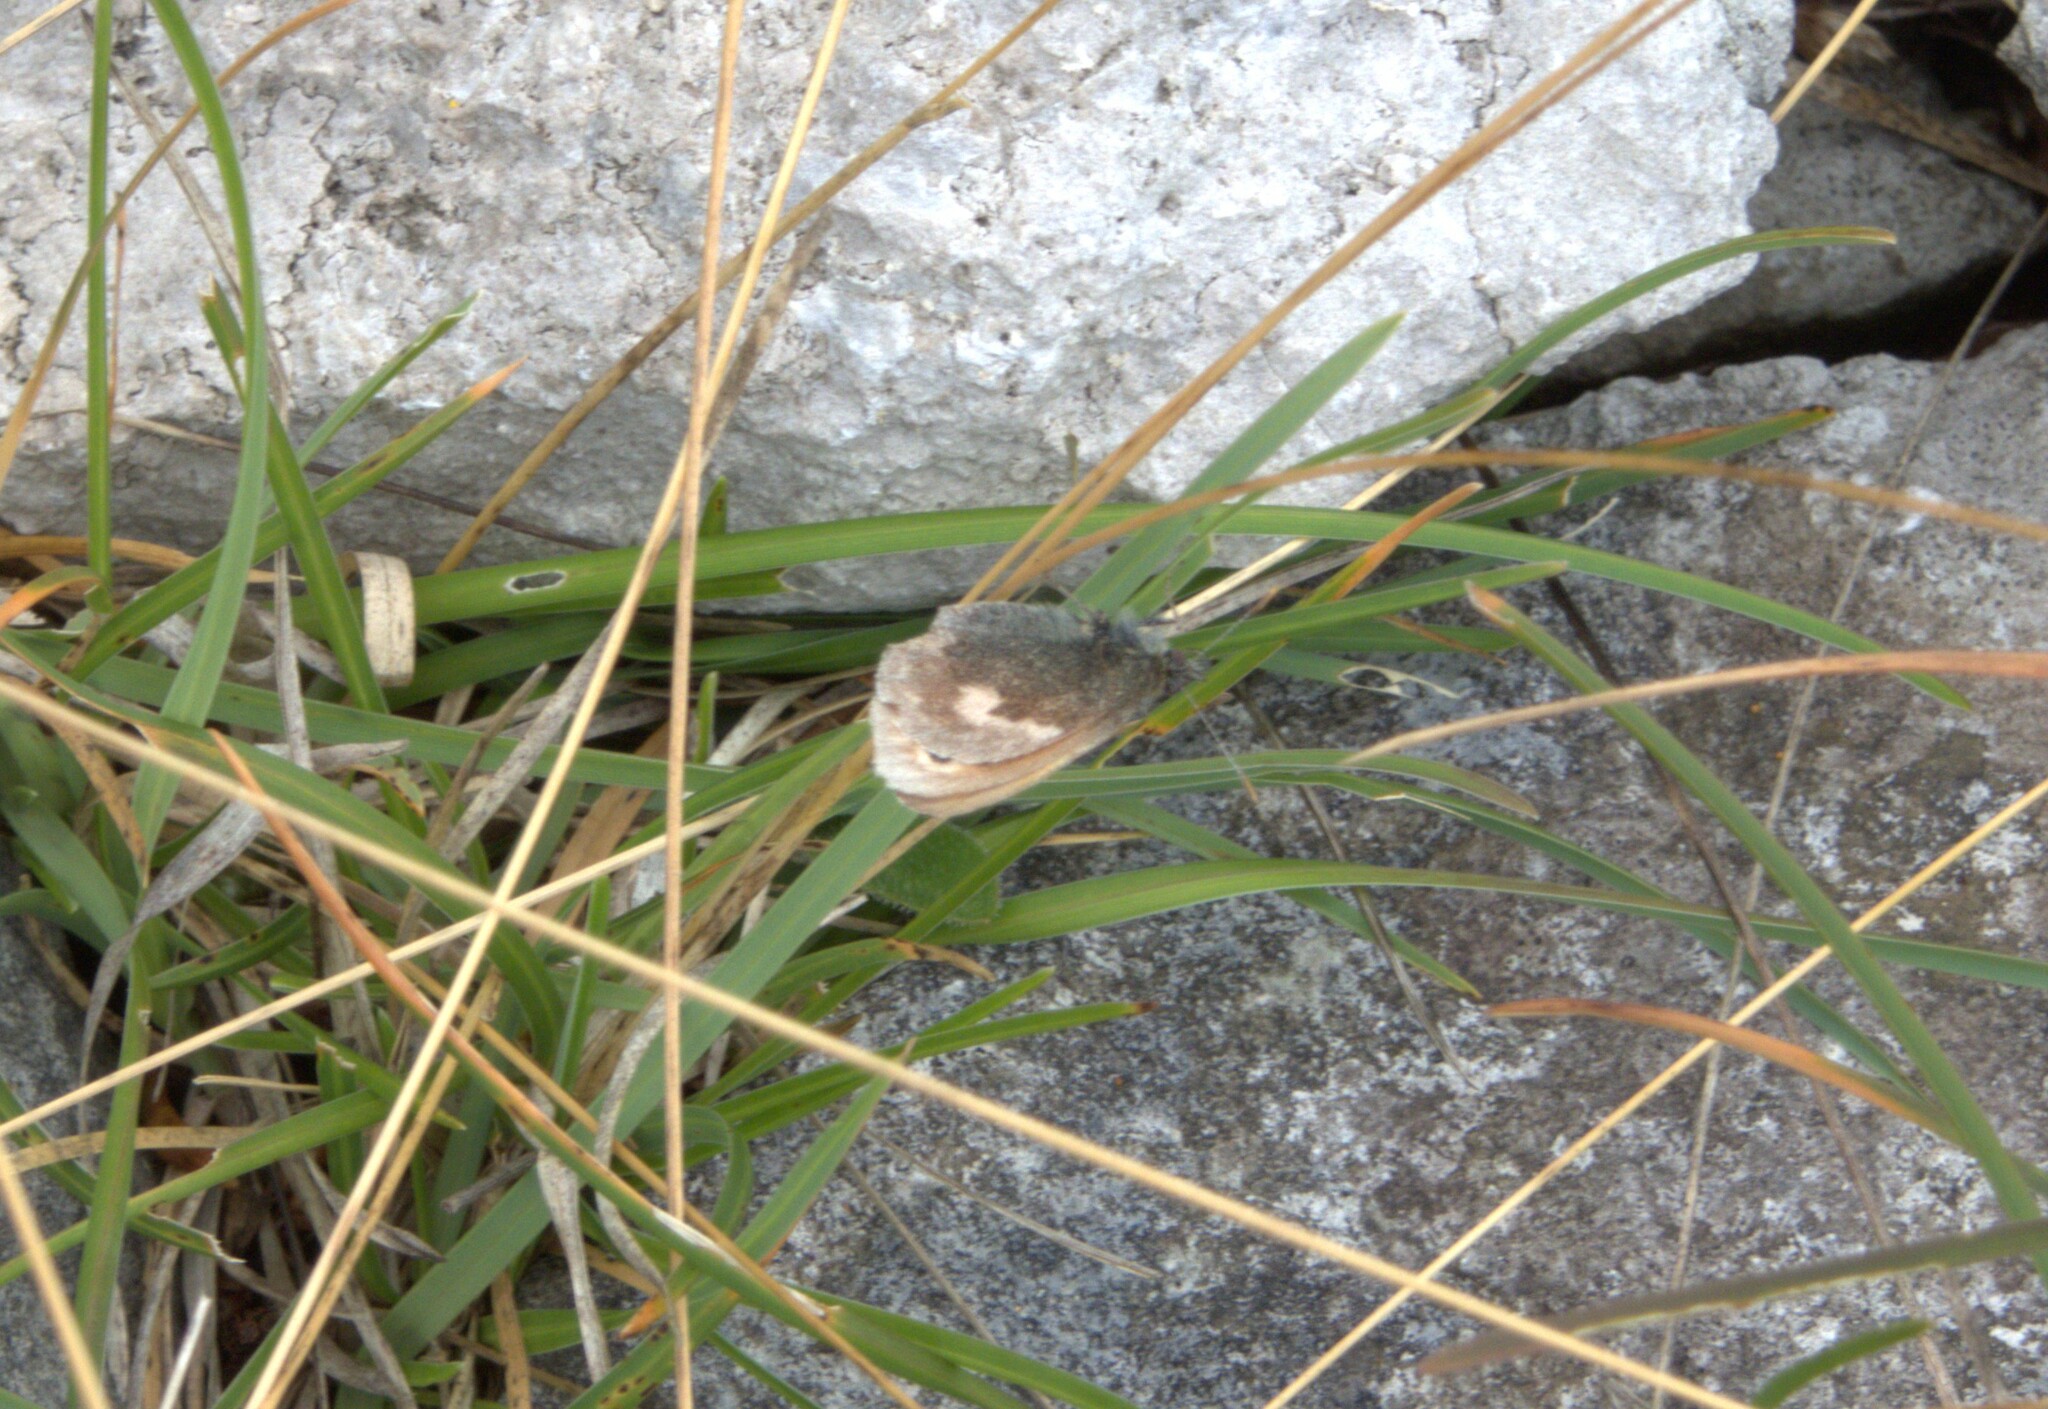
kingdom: Animalia
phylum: Arthropoda
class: Insecta
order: Lepidoptera
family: Nymphalidae
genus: Coenonympha
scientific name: Coenonympha pamphilus
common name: Small heath
